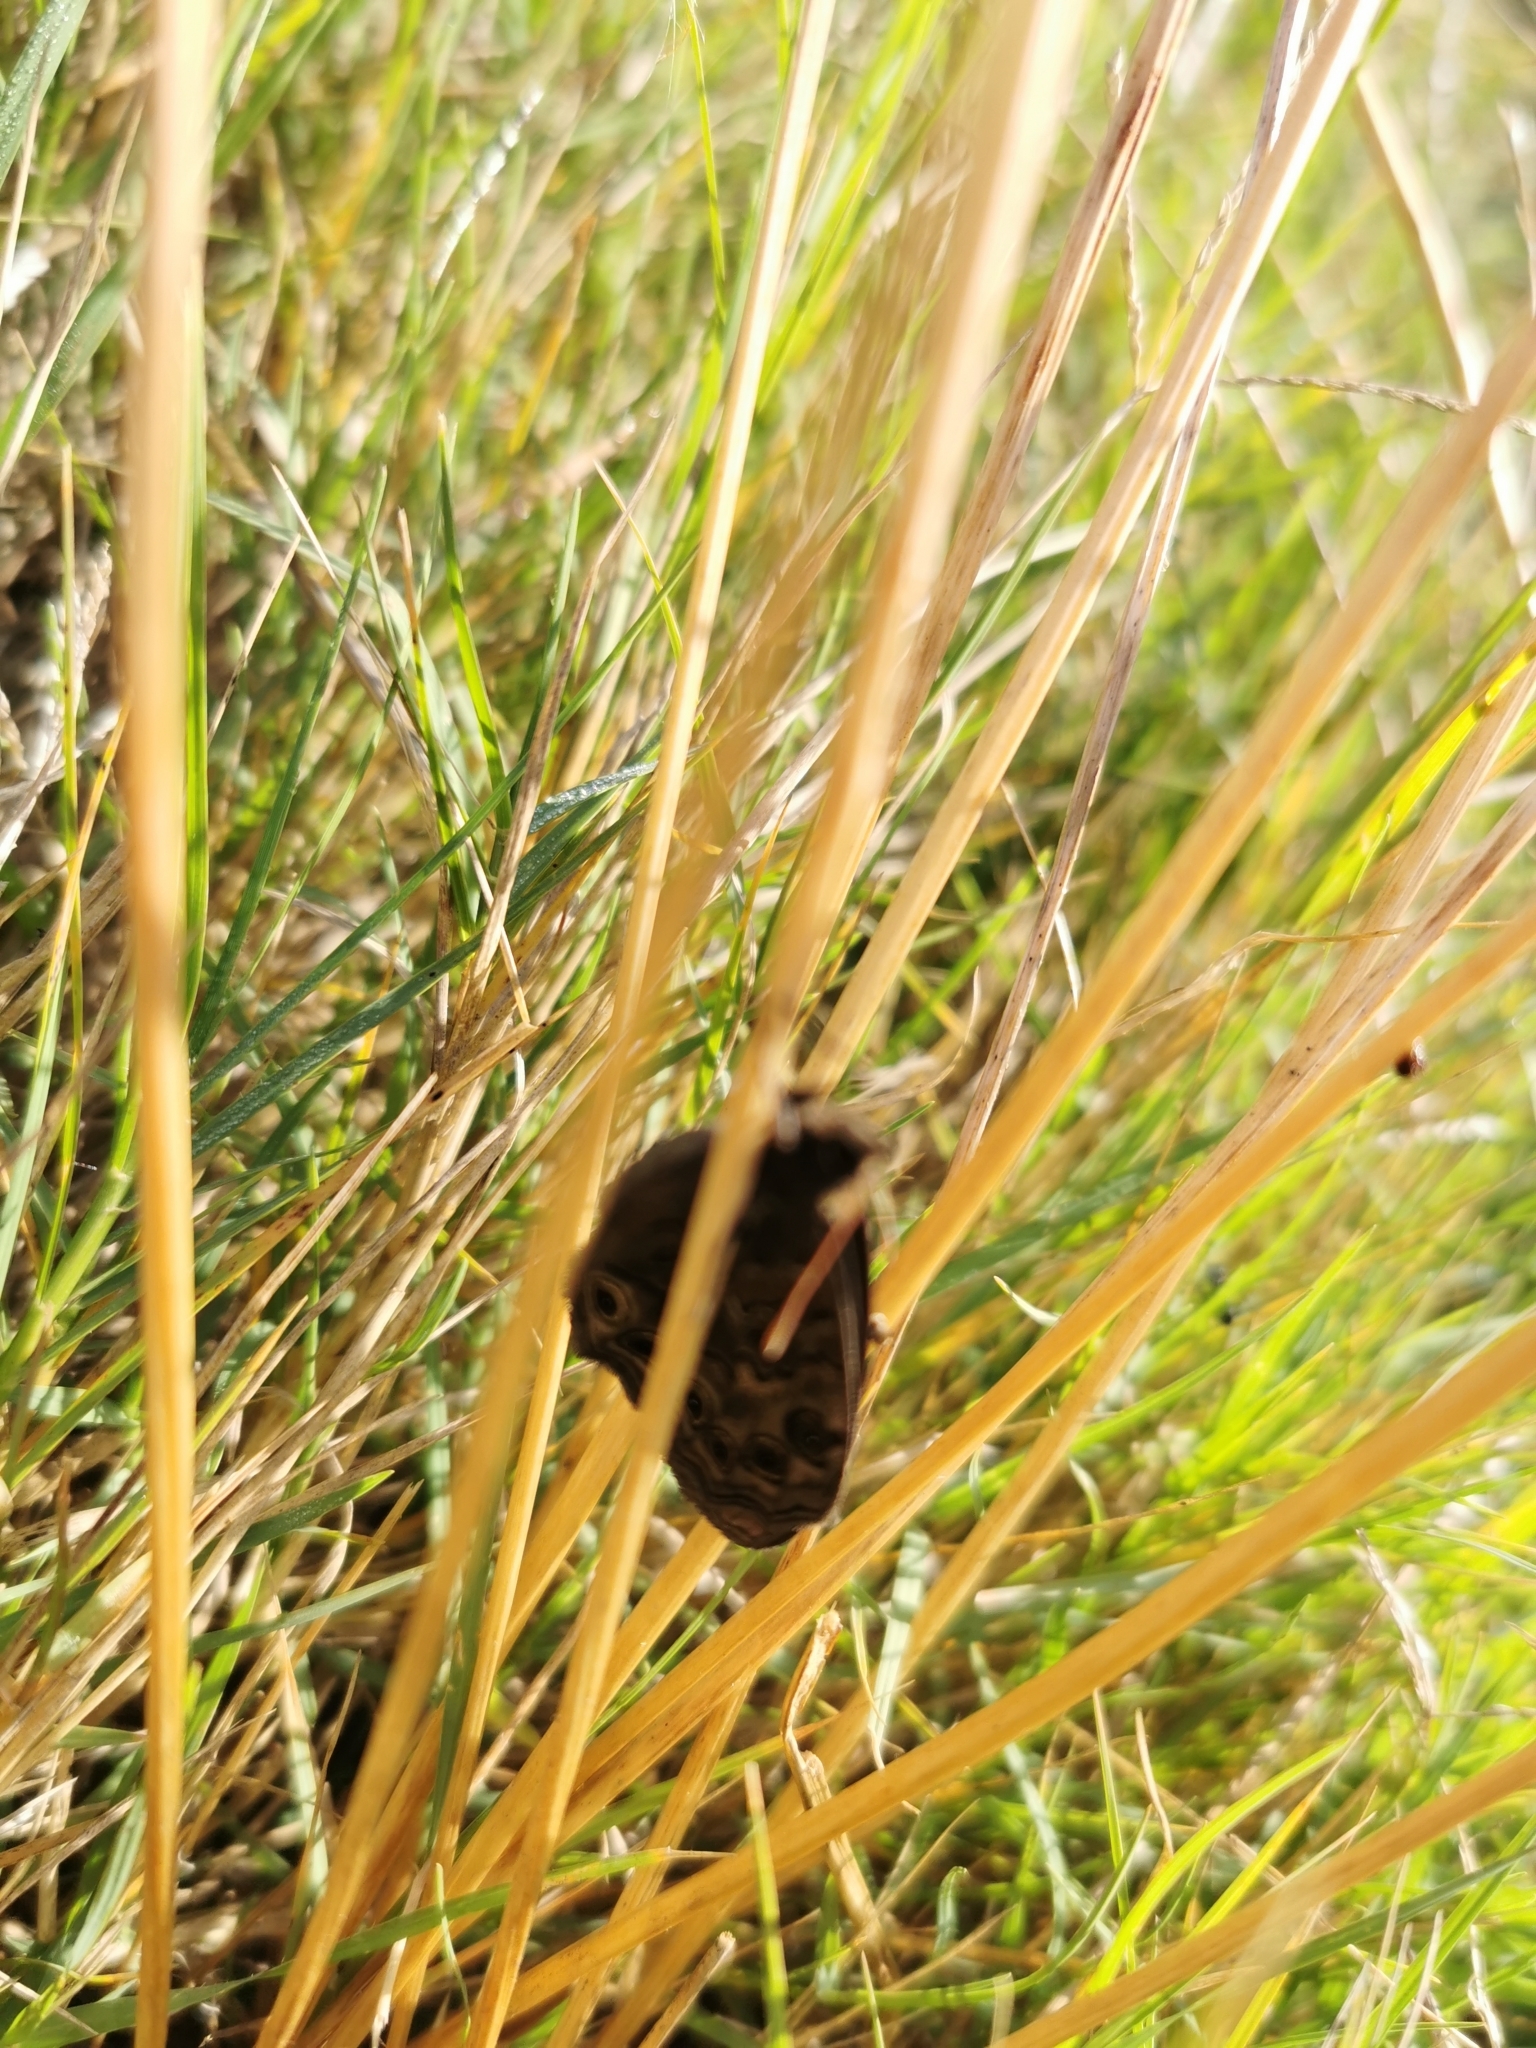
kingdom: Animalia
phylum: Arthropoda
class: Insecta
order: Lepidoptera
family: Nymphalidae
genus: Dira
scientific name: Dira clytus
